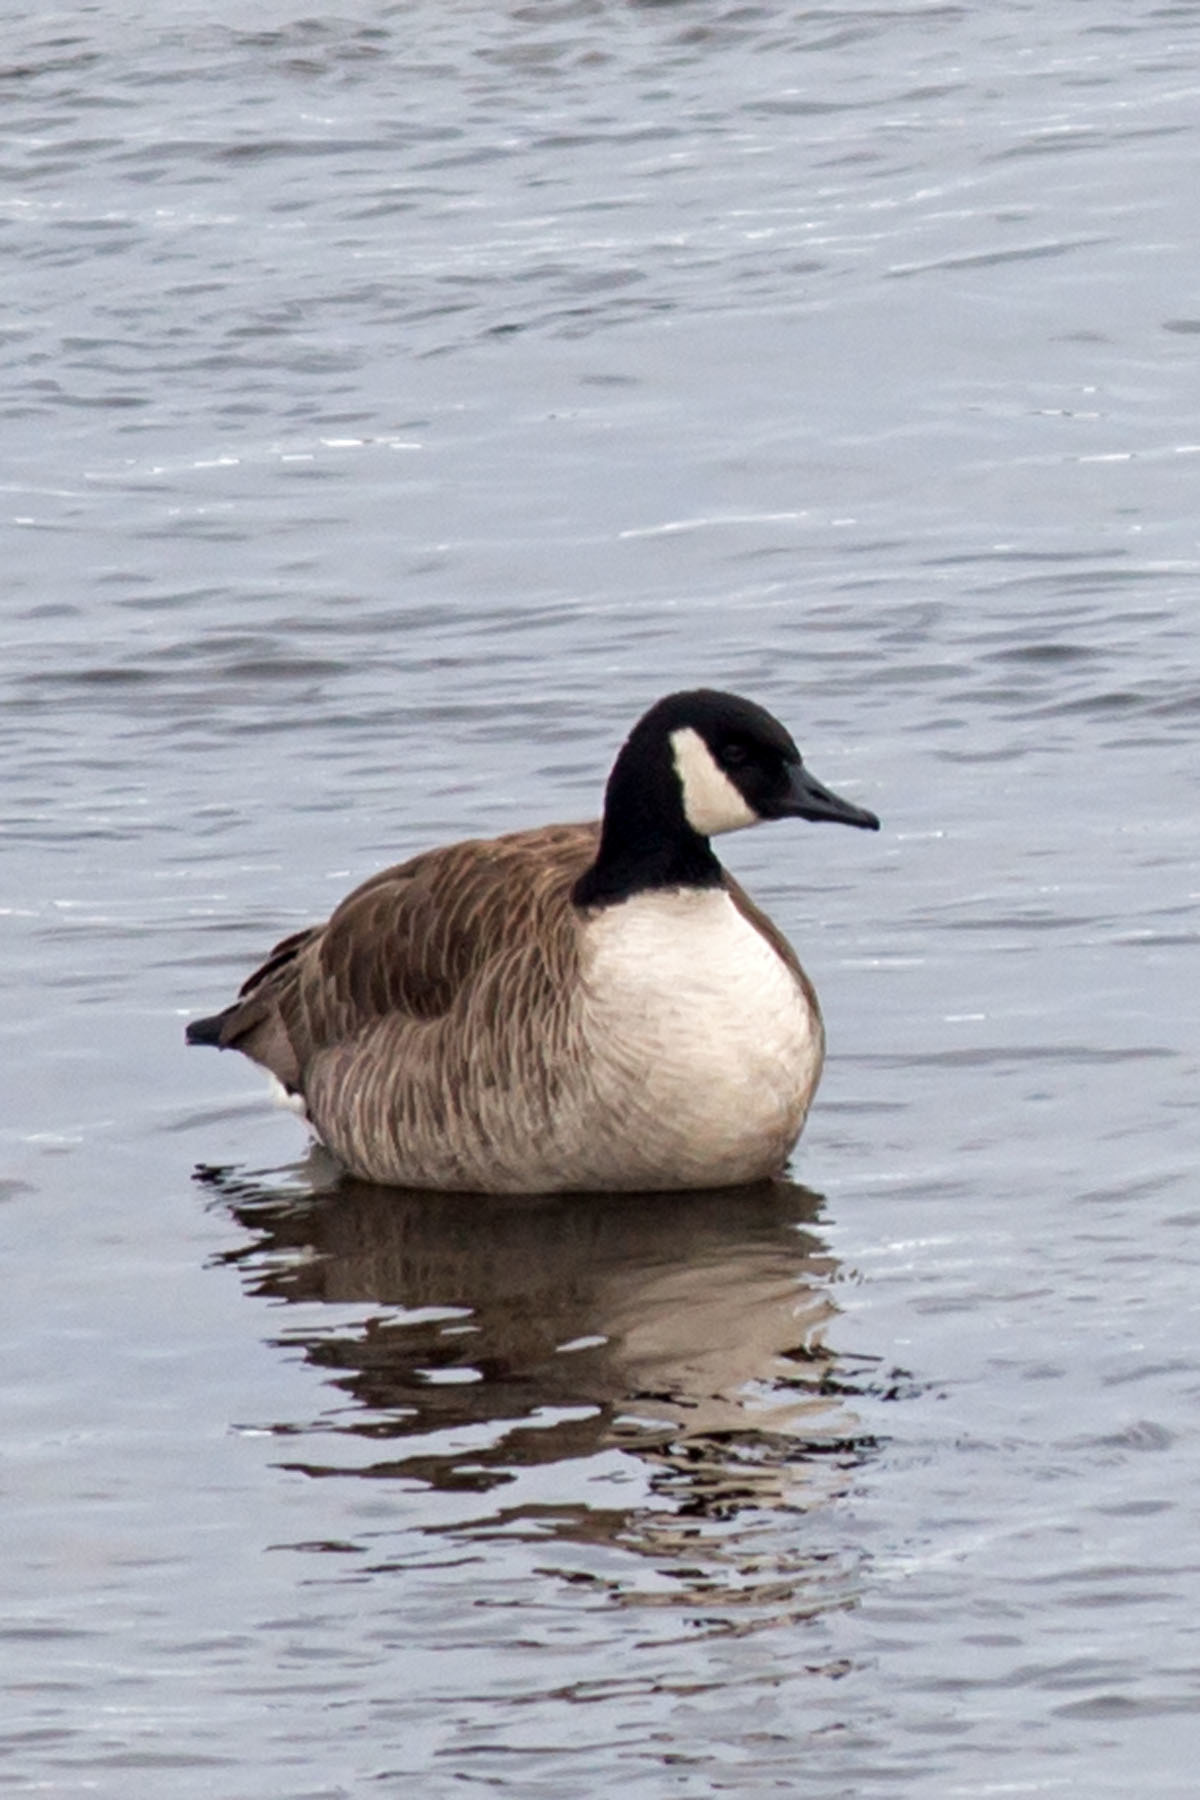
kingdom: Animalia
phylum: Chordata
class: Aves
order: Anseriformes
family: Anatidae
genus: Branta
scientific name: Branta canadensis
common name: Canada goose
